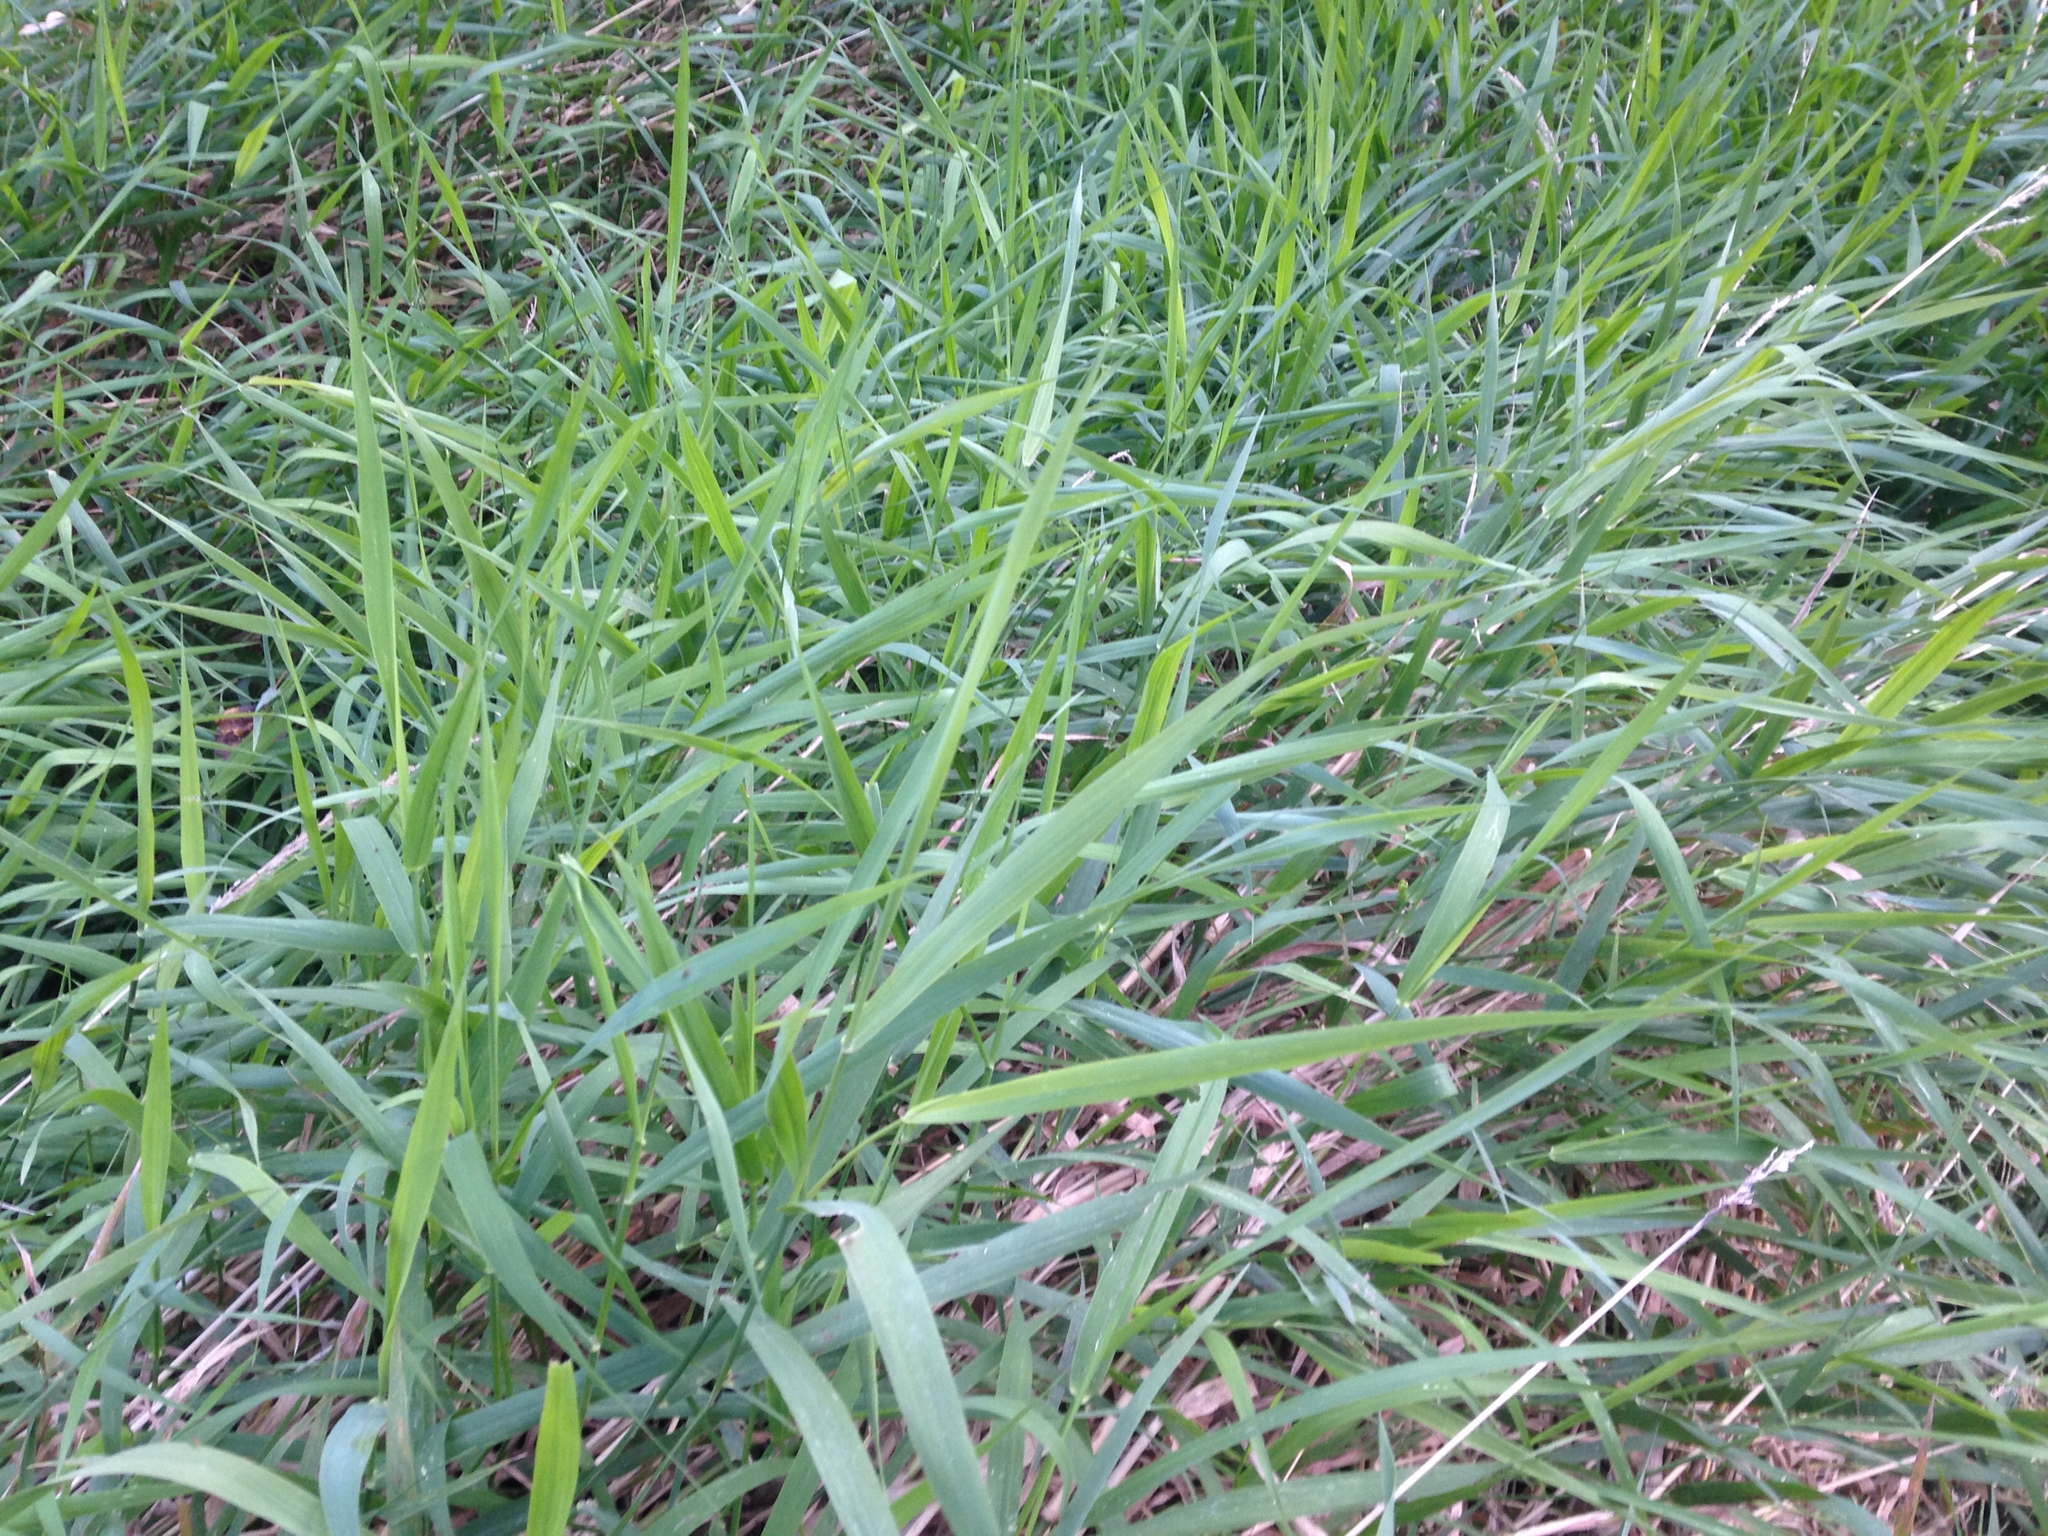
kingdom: Plantae
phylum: Tracheophyta
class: Liliopsida
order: Poales
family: Poaceae
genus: Phalaris
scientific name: Phalaris arundinacea
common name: Reed canary-grass
